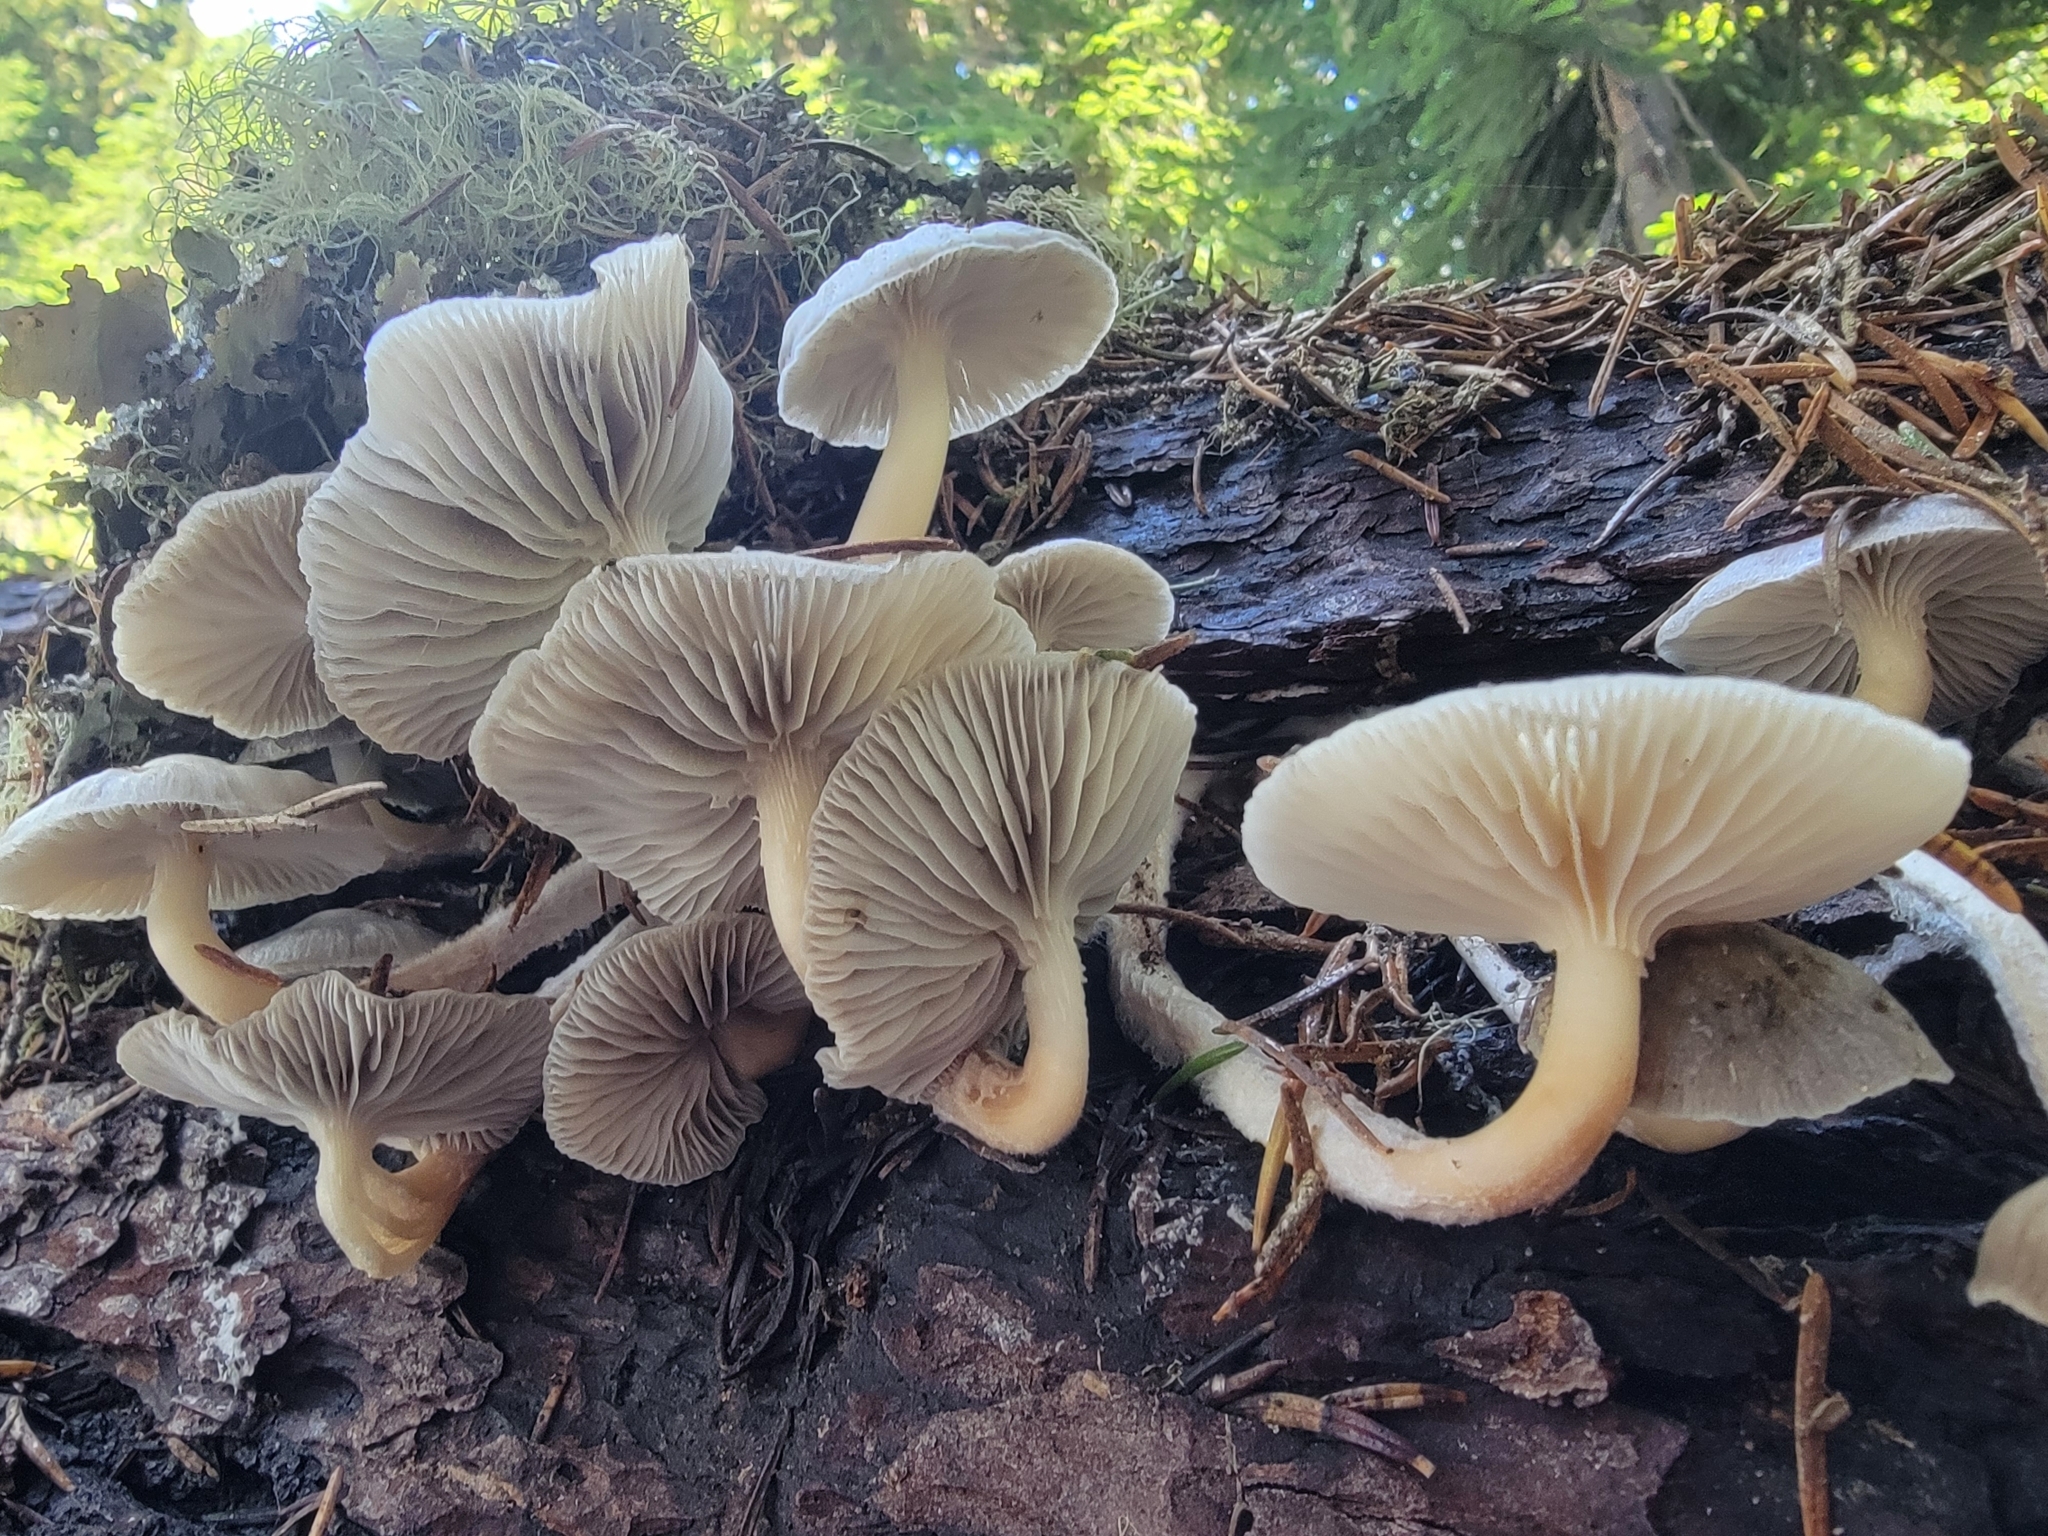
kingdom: Fungi
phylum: Basidiomycota
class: Agaricomycetes
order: Agaricales
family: Mycenaceae
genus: Mycena
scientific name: Mycena overholtsii
